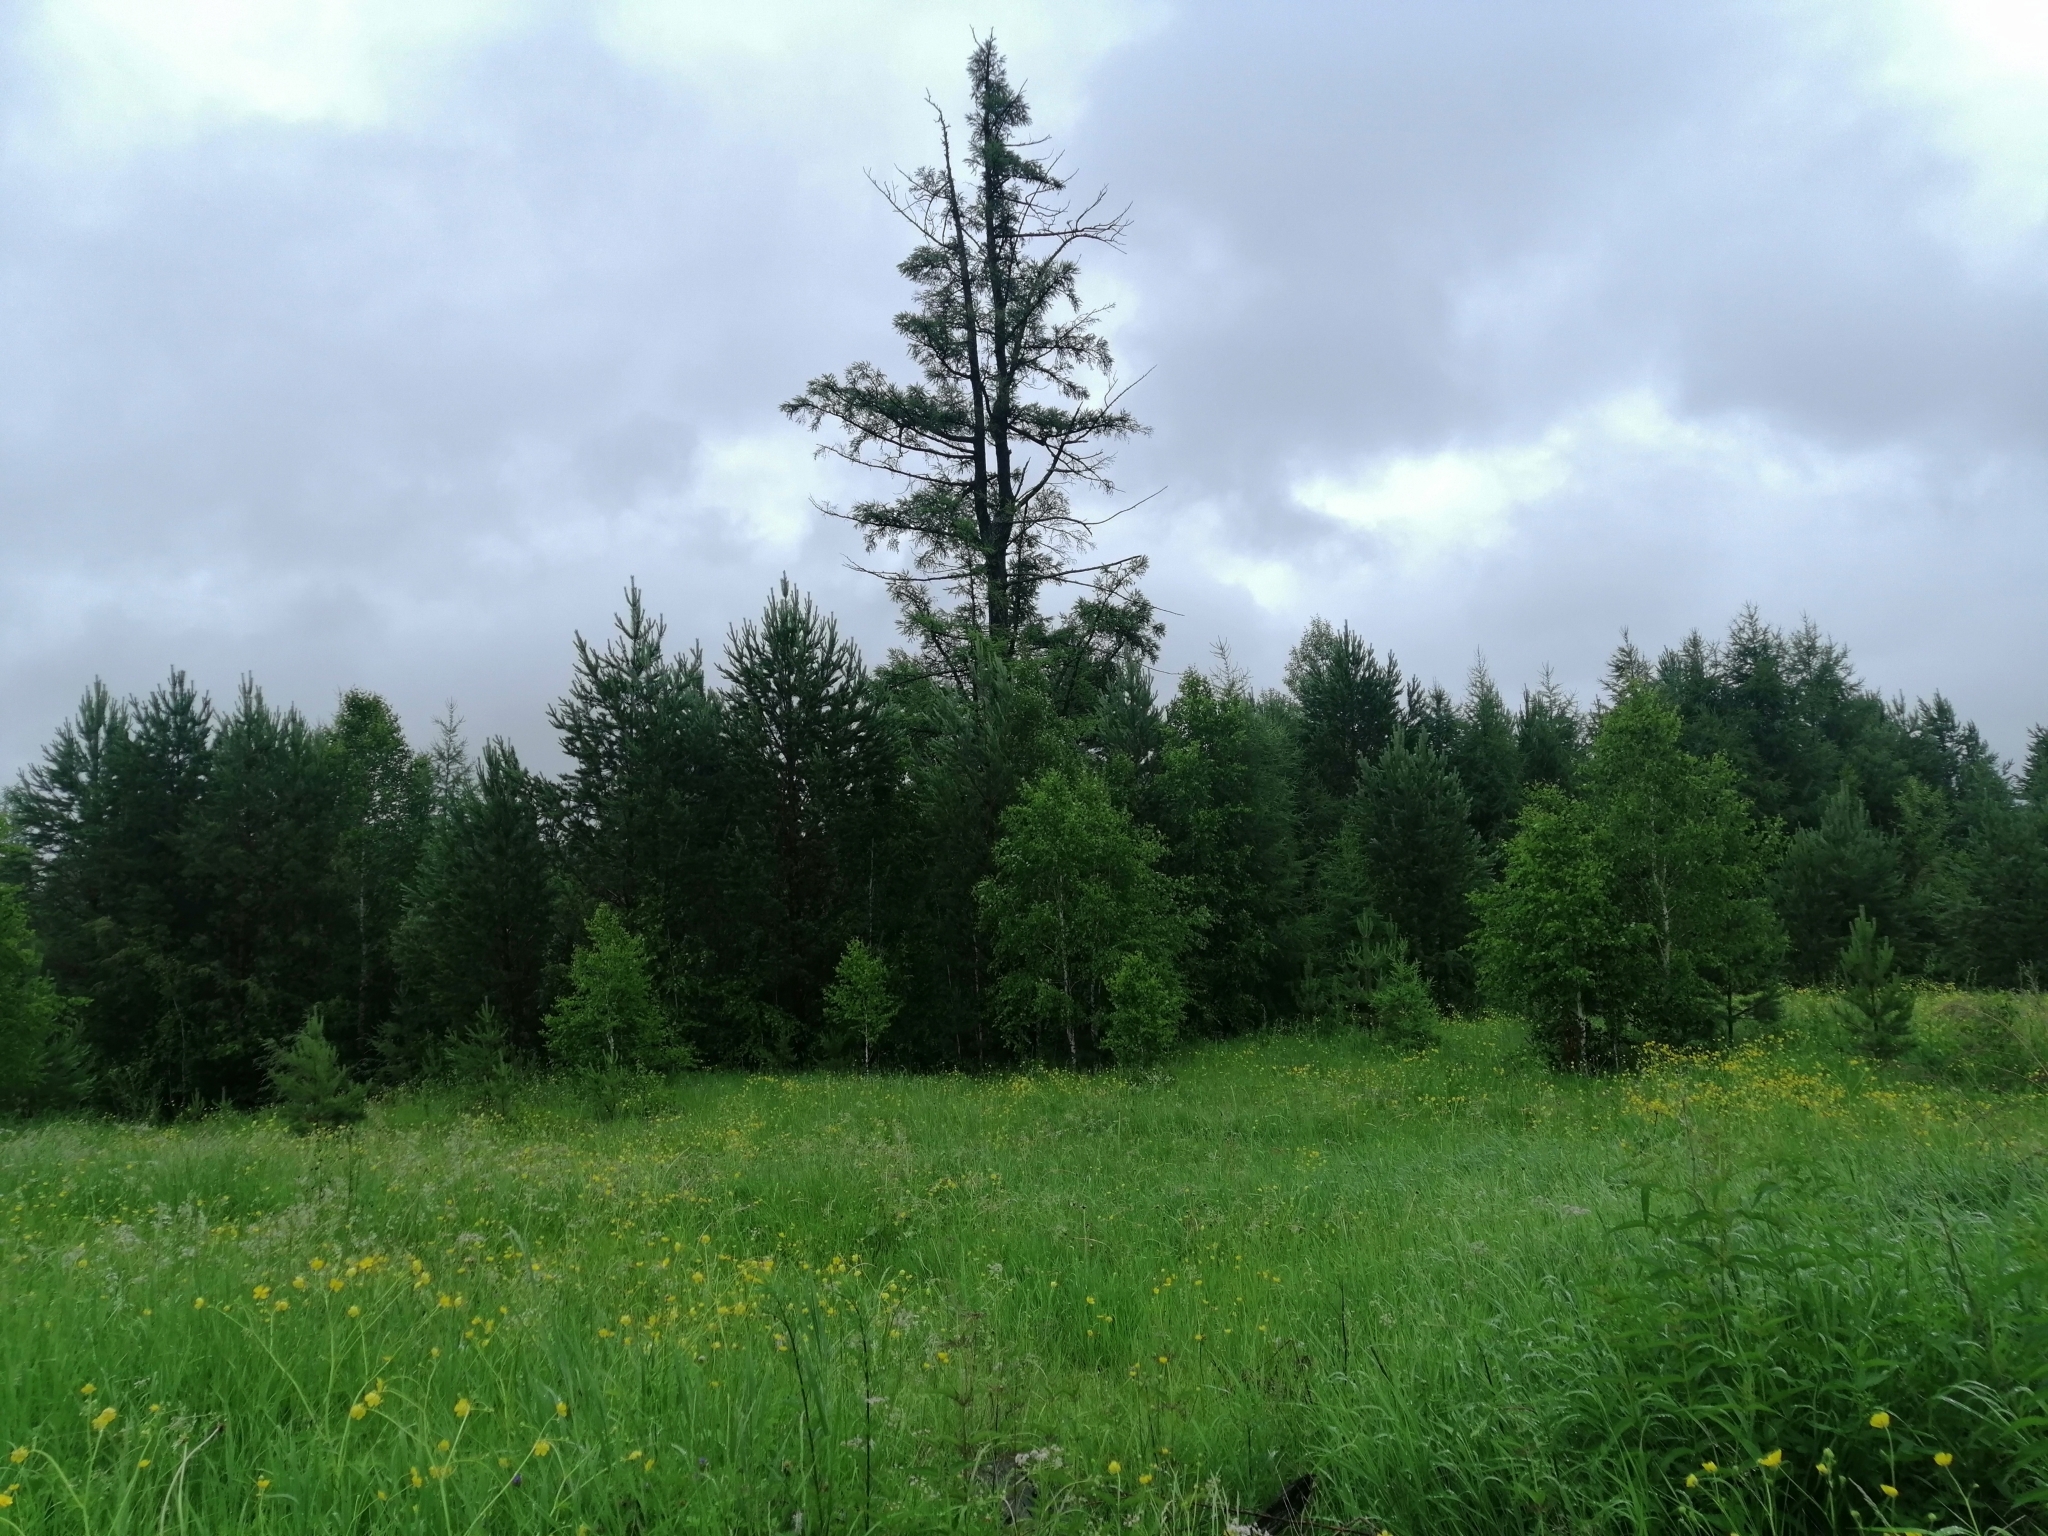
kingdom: Plantae
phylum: Tracheophyta
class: Pinopsida
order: Pinales
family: Pinaceae
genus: Larix
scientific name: Larix sibirica
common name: Siberian larch
